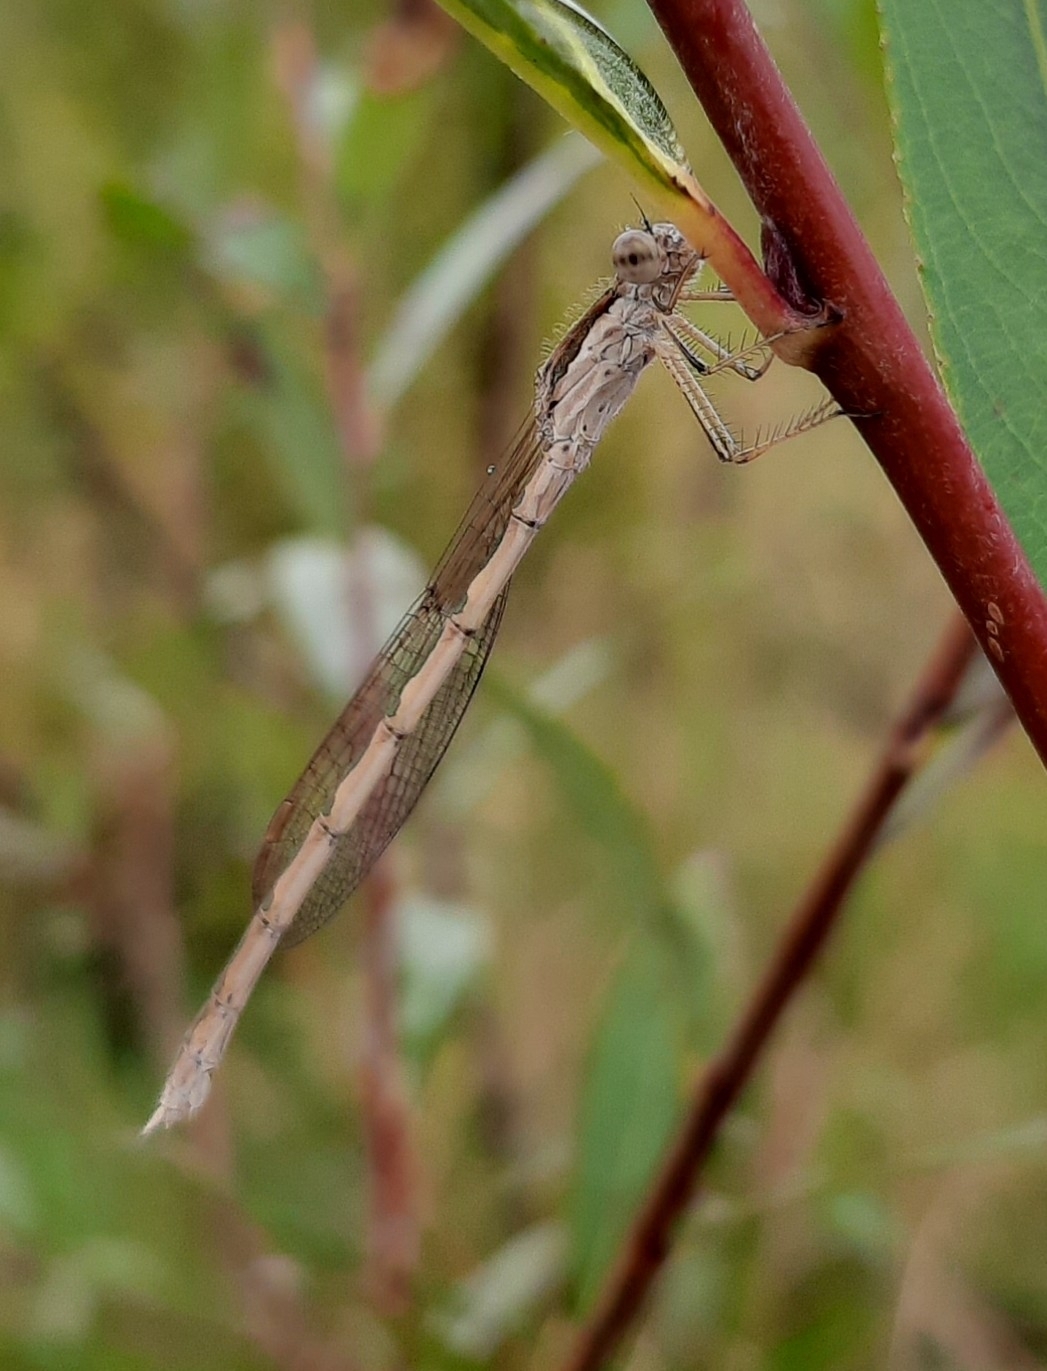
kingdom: Animalia
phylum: Arthropoda
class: Insecta
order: Odonata
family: Lestidae
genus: Sympecma
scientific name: Sympecma fusca
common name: Common winter damsel
